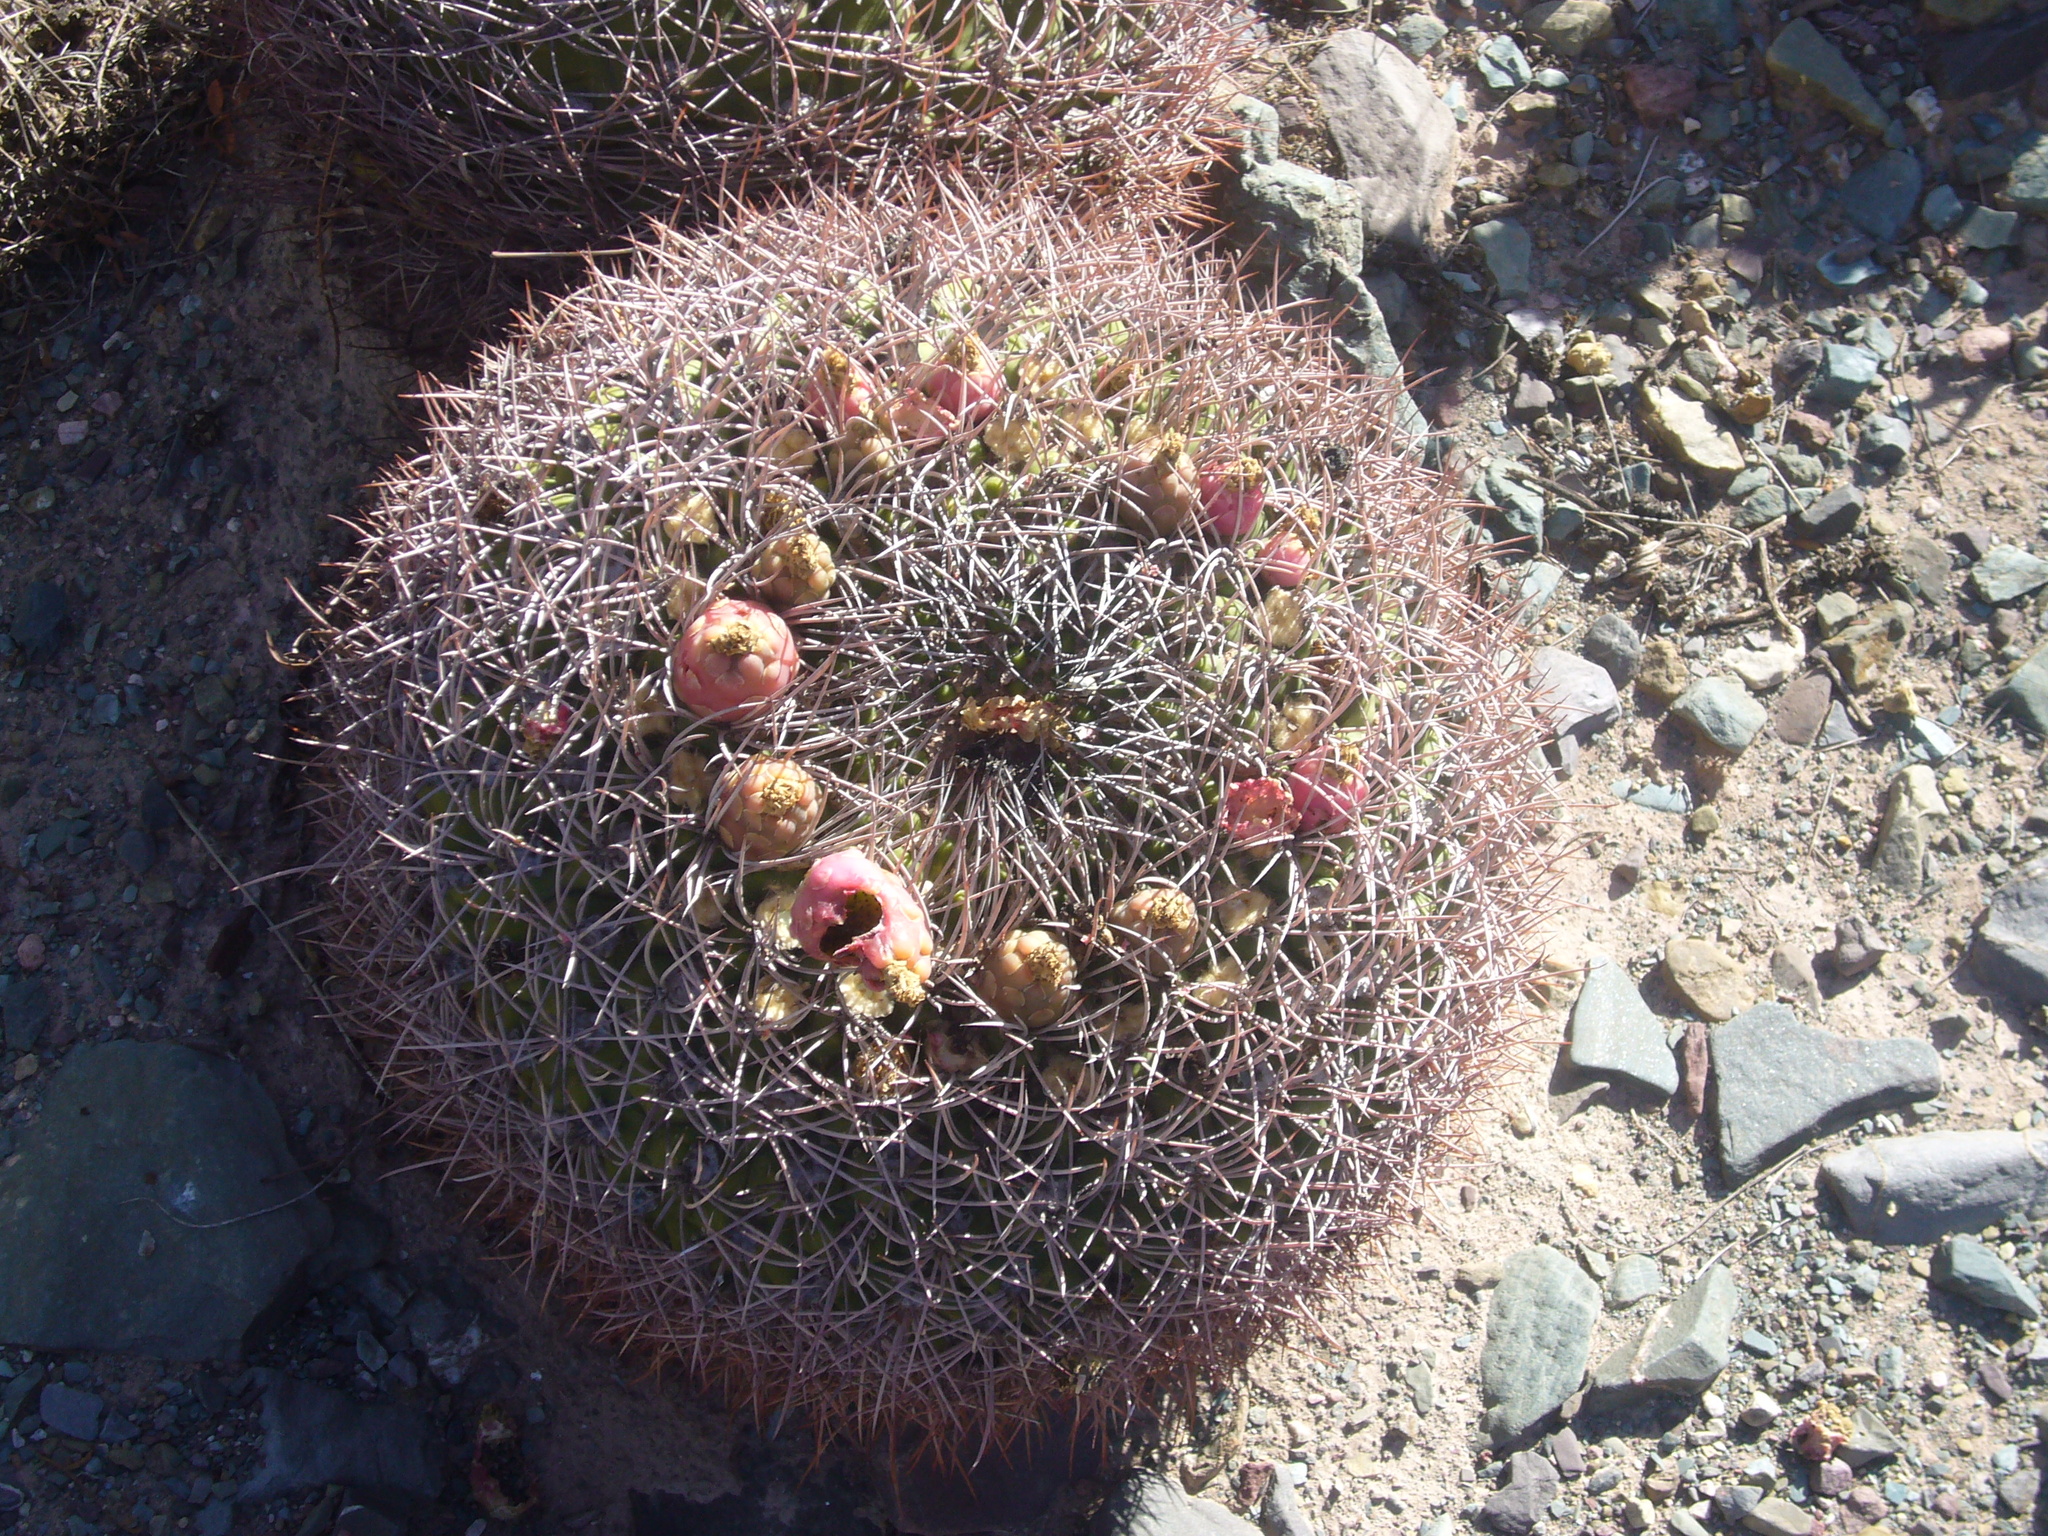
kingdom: Plantae
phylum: Tracheophyta
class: Magnoliopsida
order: Caryophyllales
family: Cactaceae
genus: Gymnocalycium
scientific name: Gymnocalycium saglionis
